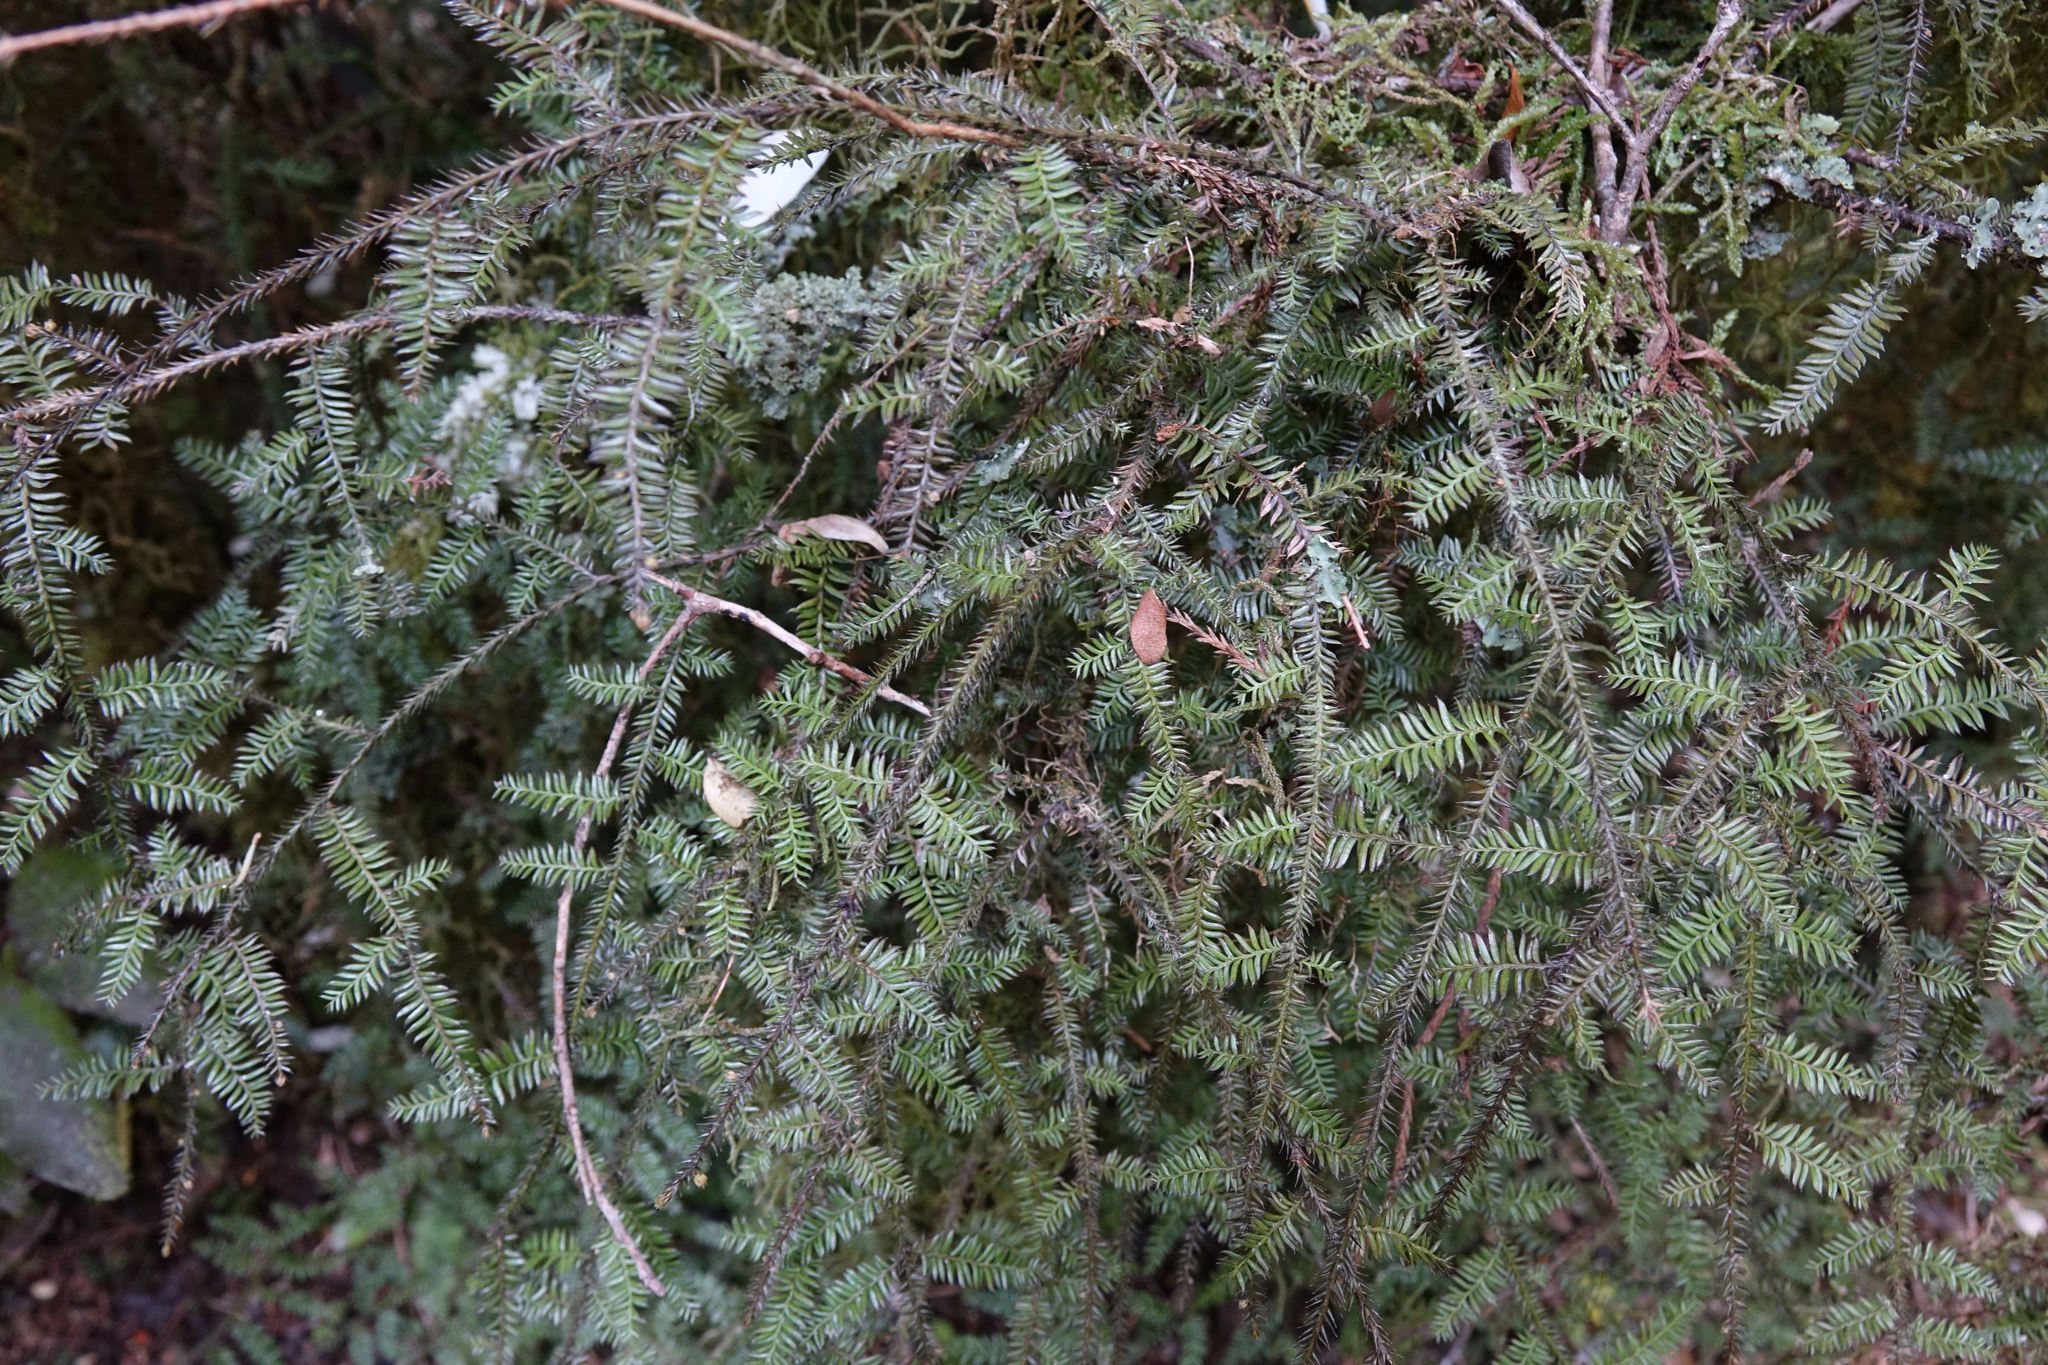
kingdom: Plantae
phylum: Tracheophyta
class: Pinopsida
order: Pinales
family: Podocarpaceae
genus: Dacrycarpus
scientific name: Dacrycarpus dacrydioides
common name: White pine
